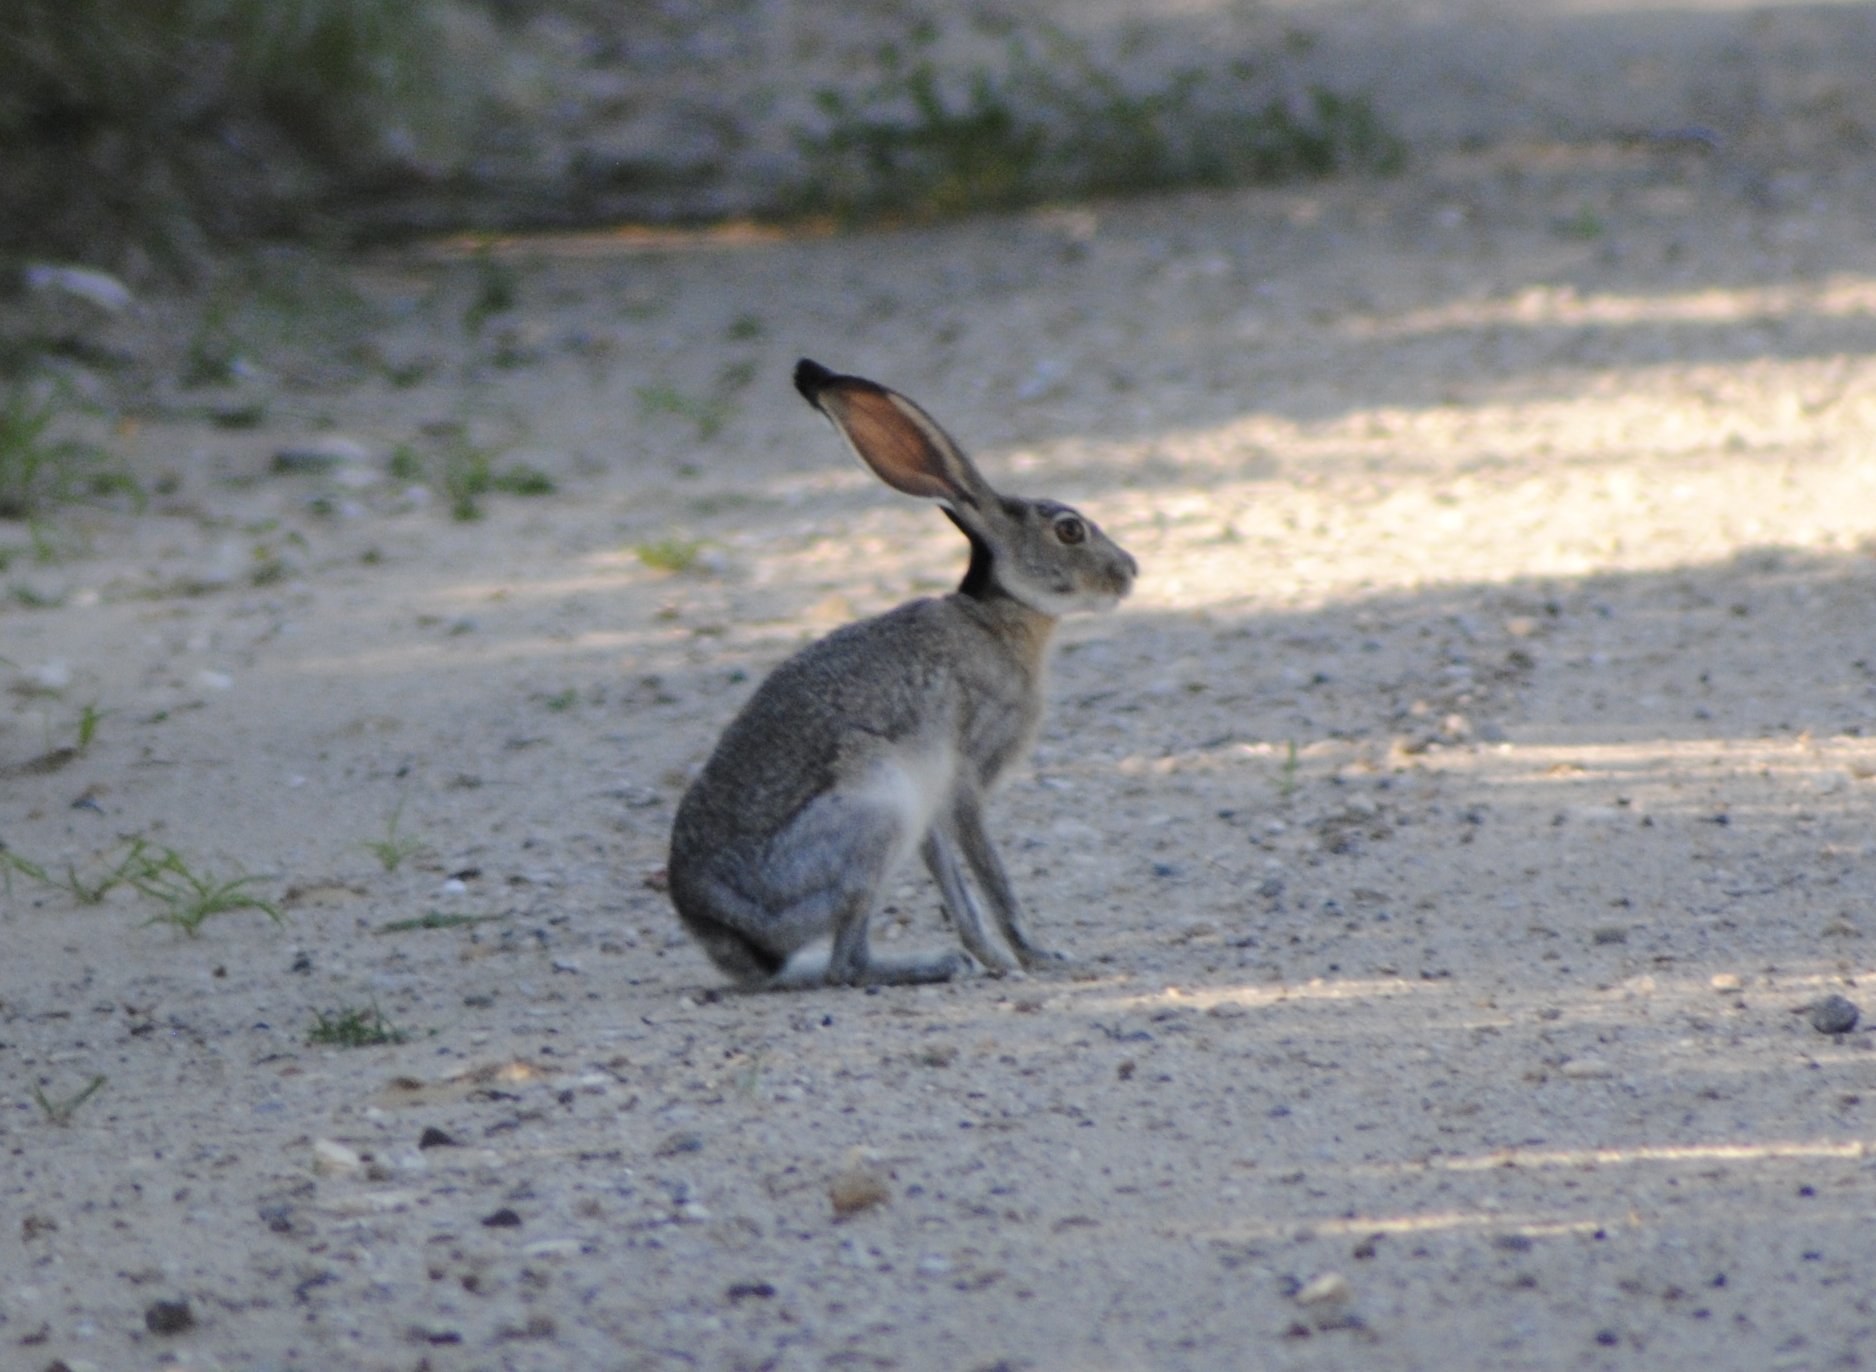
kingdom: Animalia
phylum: Chordata
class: Mammalia
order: Lagomorpha
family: Leporidae
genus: Lepus
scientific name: Lepus californicus
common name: Black-tailed jackrabbit
